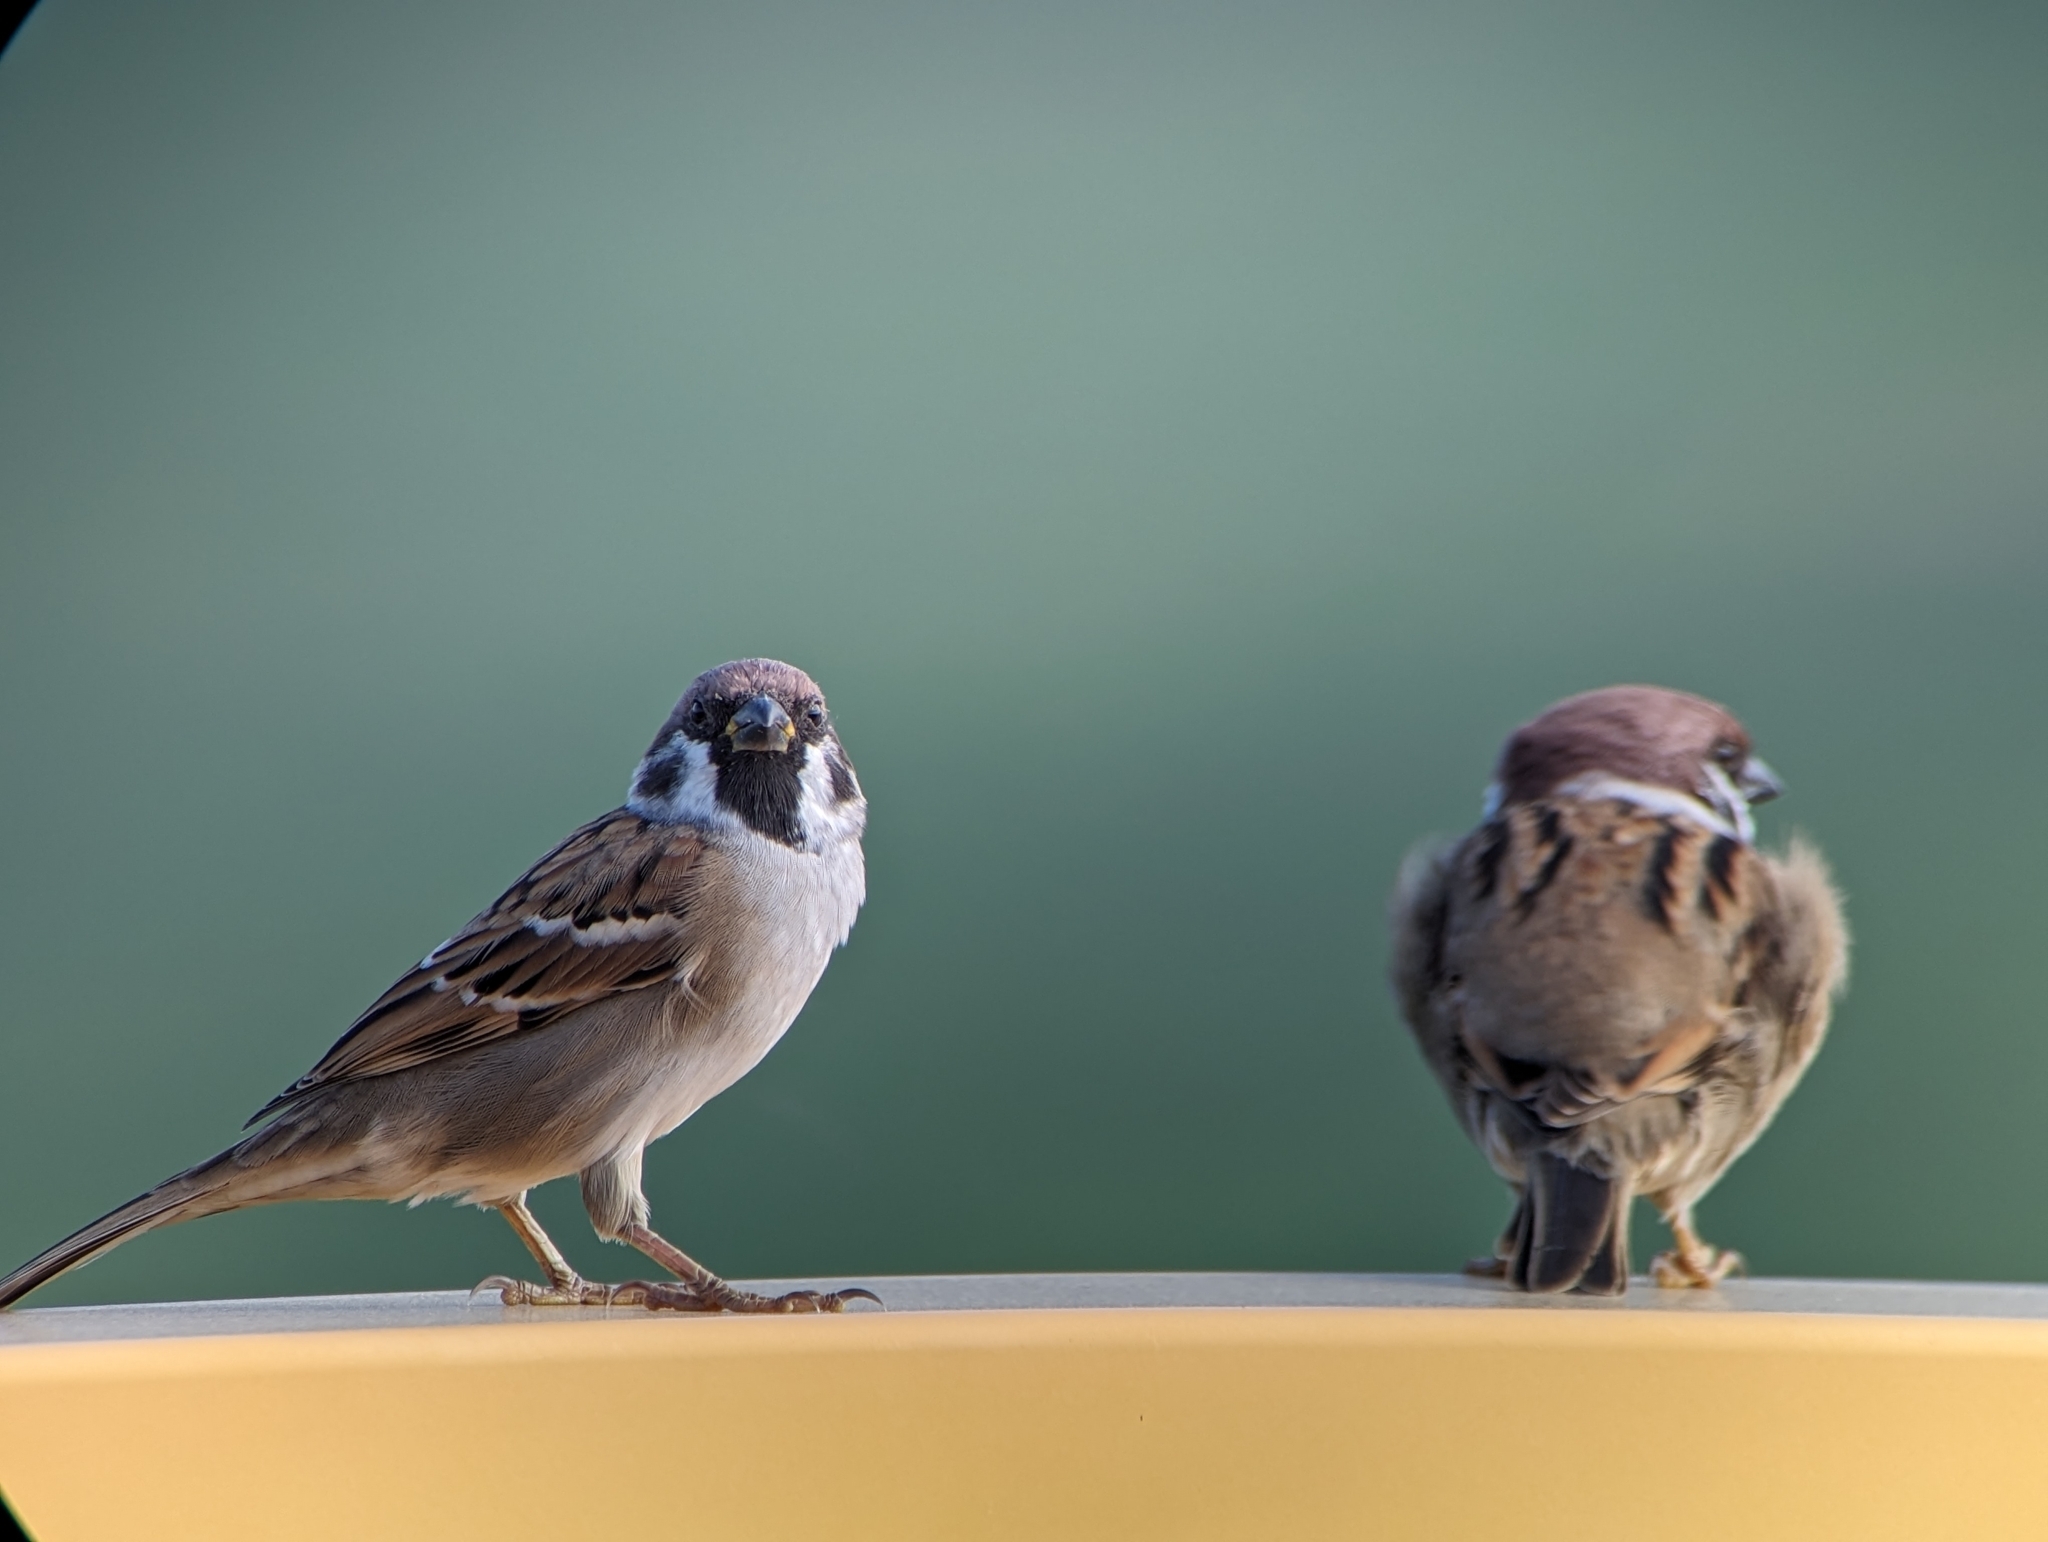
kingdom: Animalia
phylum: Chordata
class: Aves
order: Passeriformes
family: Passeridae
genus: Passer
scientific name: Passer montanus
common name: Eurasian tree sparrow
